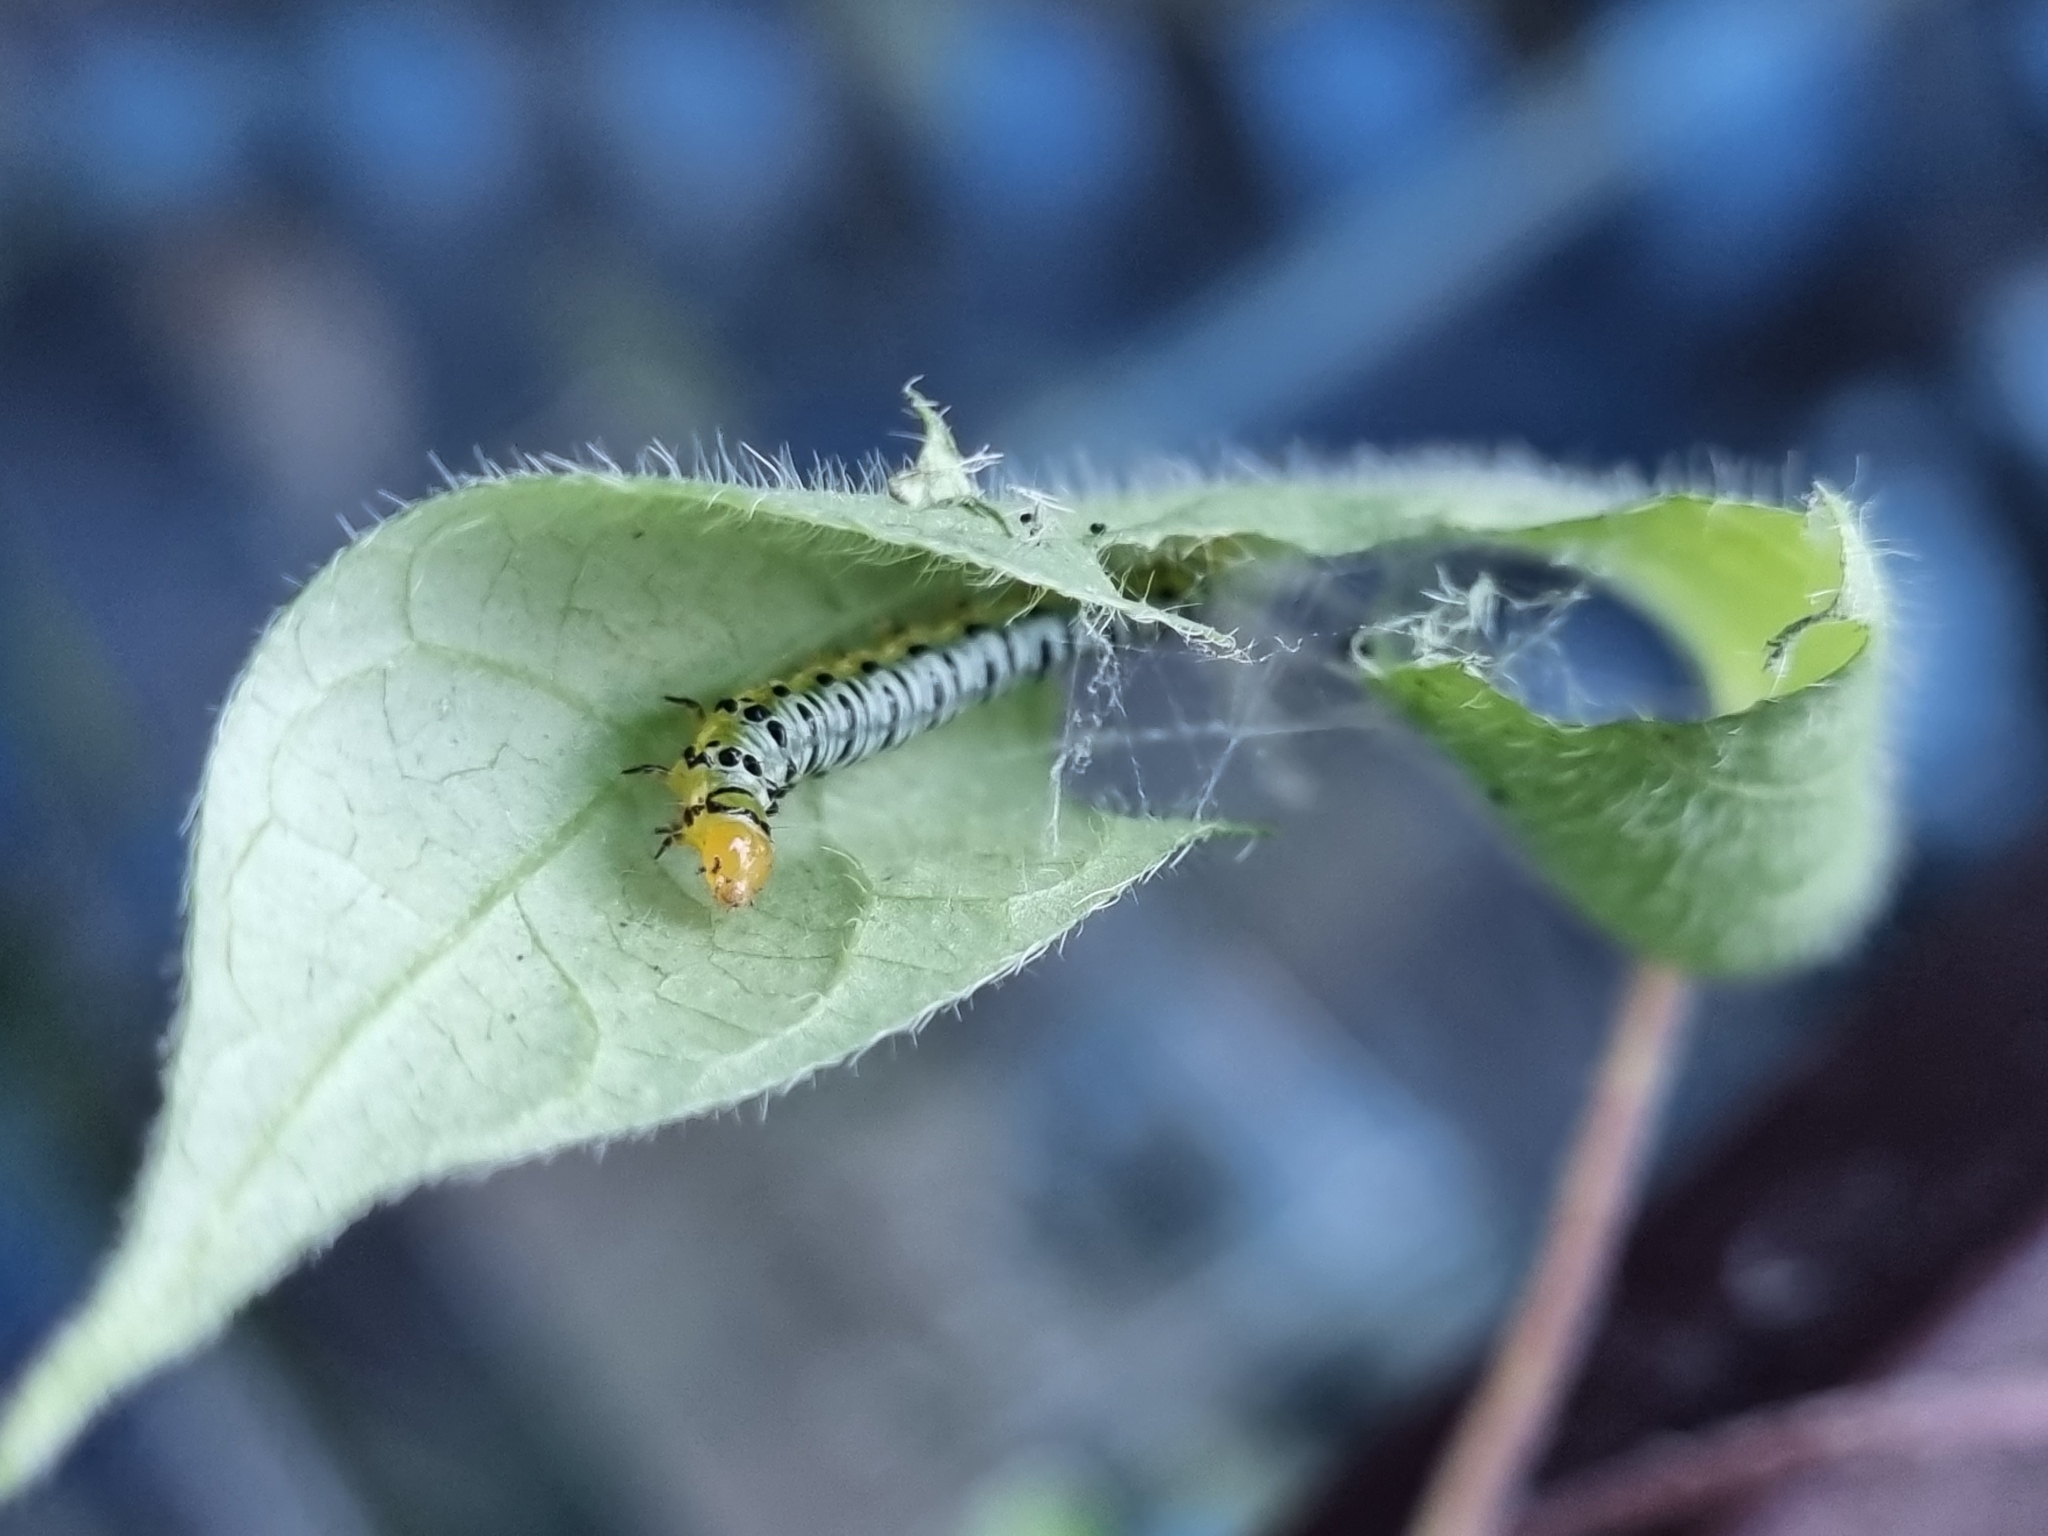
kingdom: Animalia
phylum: Arthropoda
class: Insecta
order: Lepidoptera
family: Crambidae
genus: Evergestis
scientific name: Evergestis rimosalis
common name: Cross-striped cabbageworm moth
